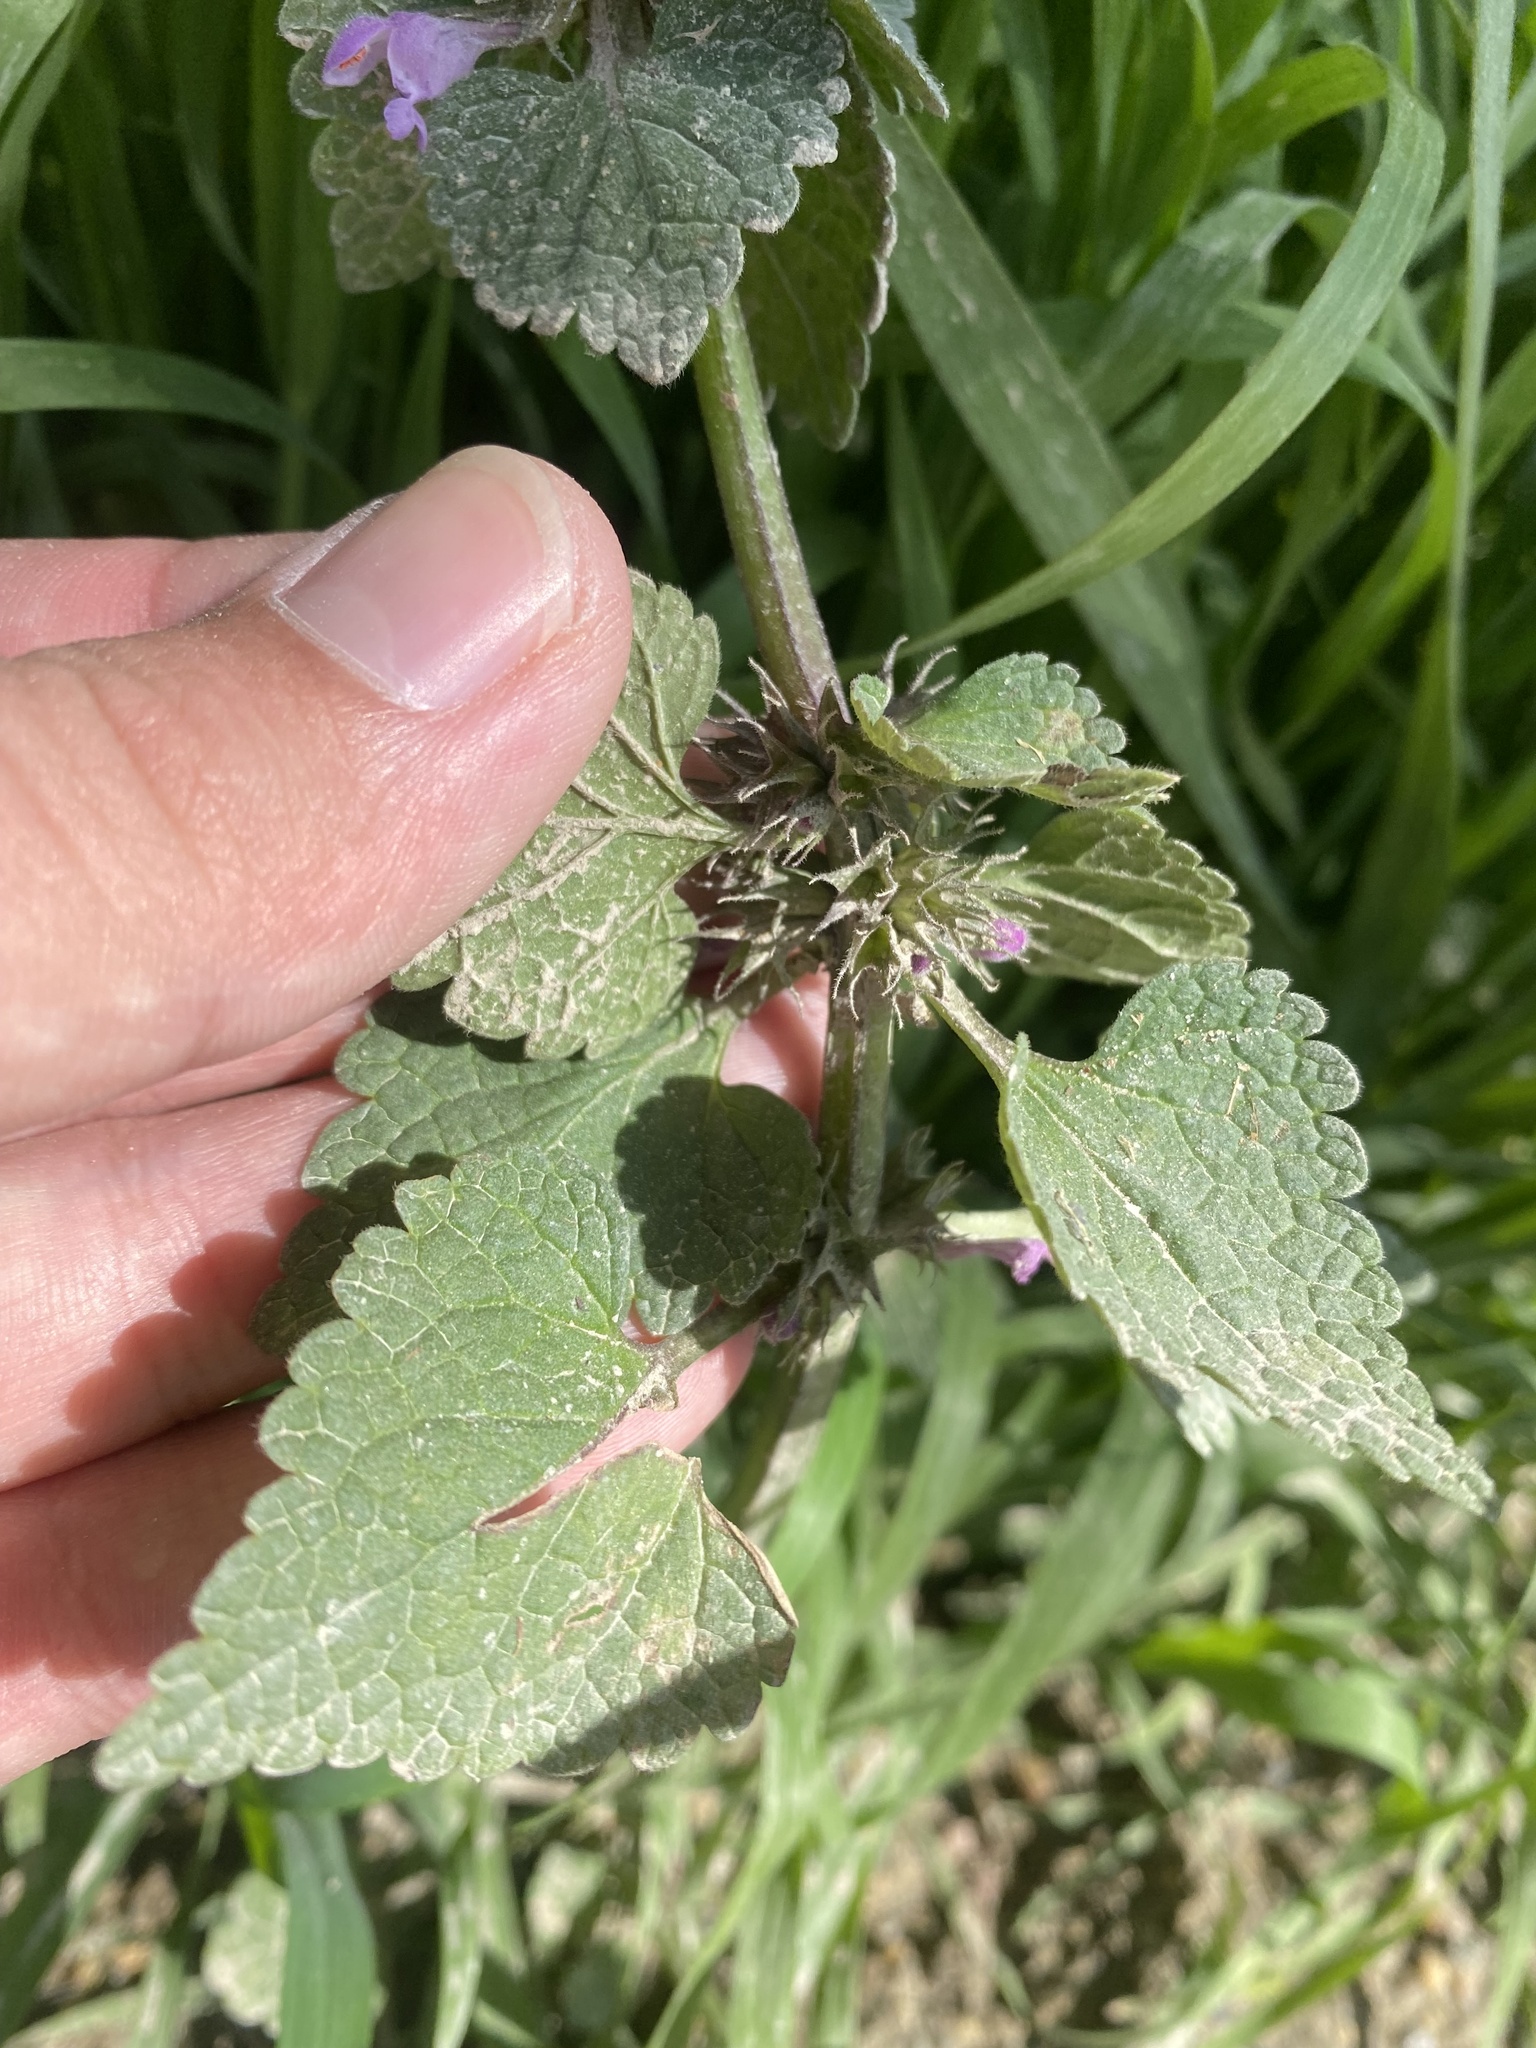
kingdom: Plantae
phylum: Tracheophyta
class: Magnoliopsida
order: Lamiales
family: Lamiaceae
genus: Lamium
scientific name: Lamium purpureum
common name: Red dead-nettle
